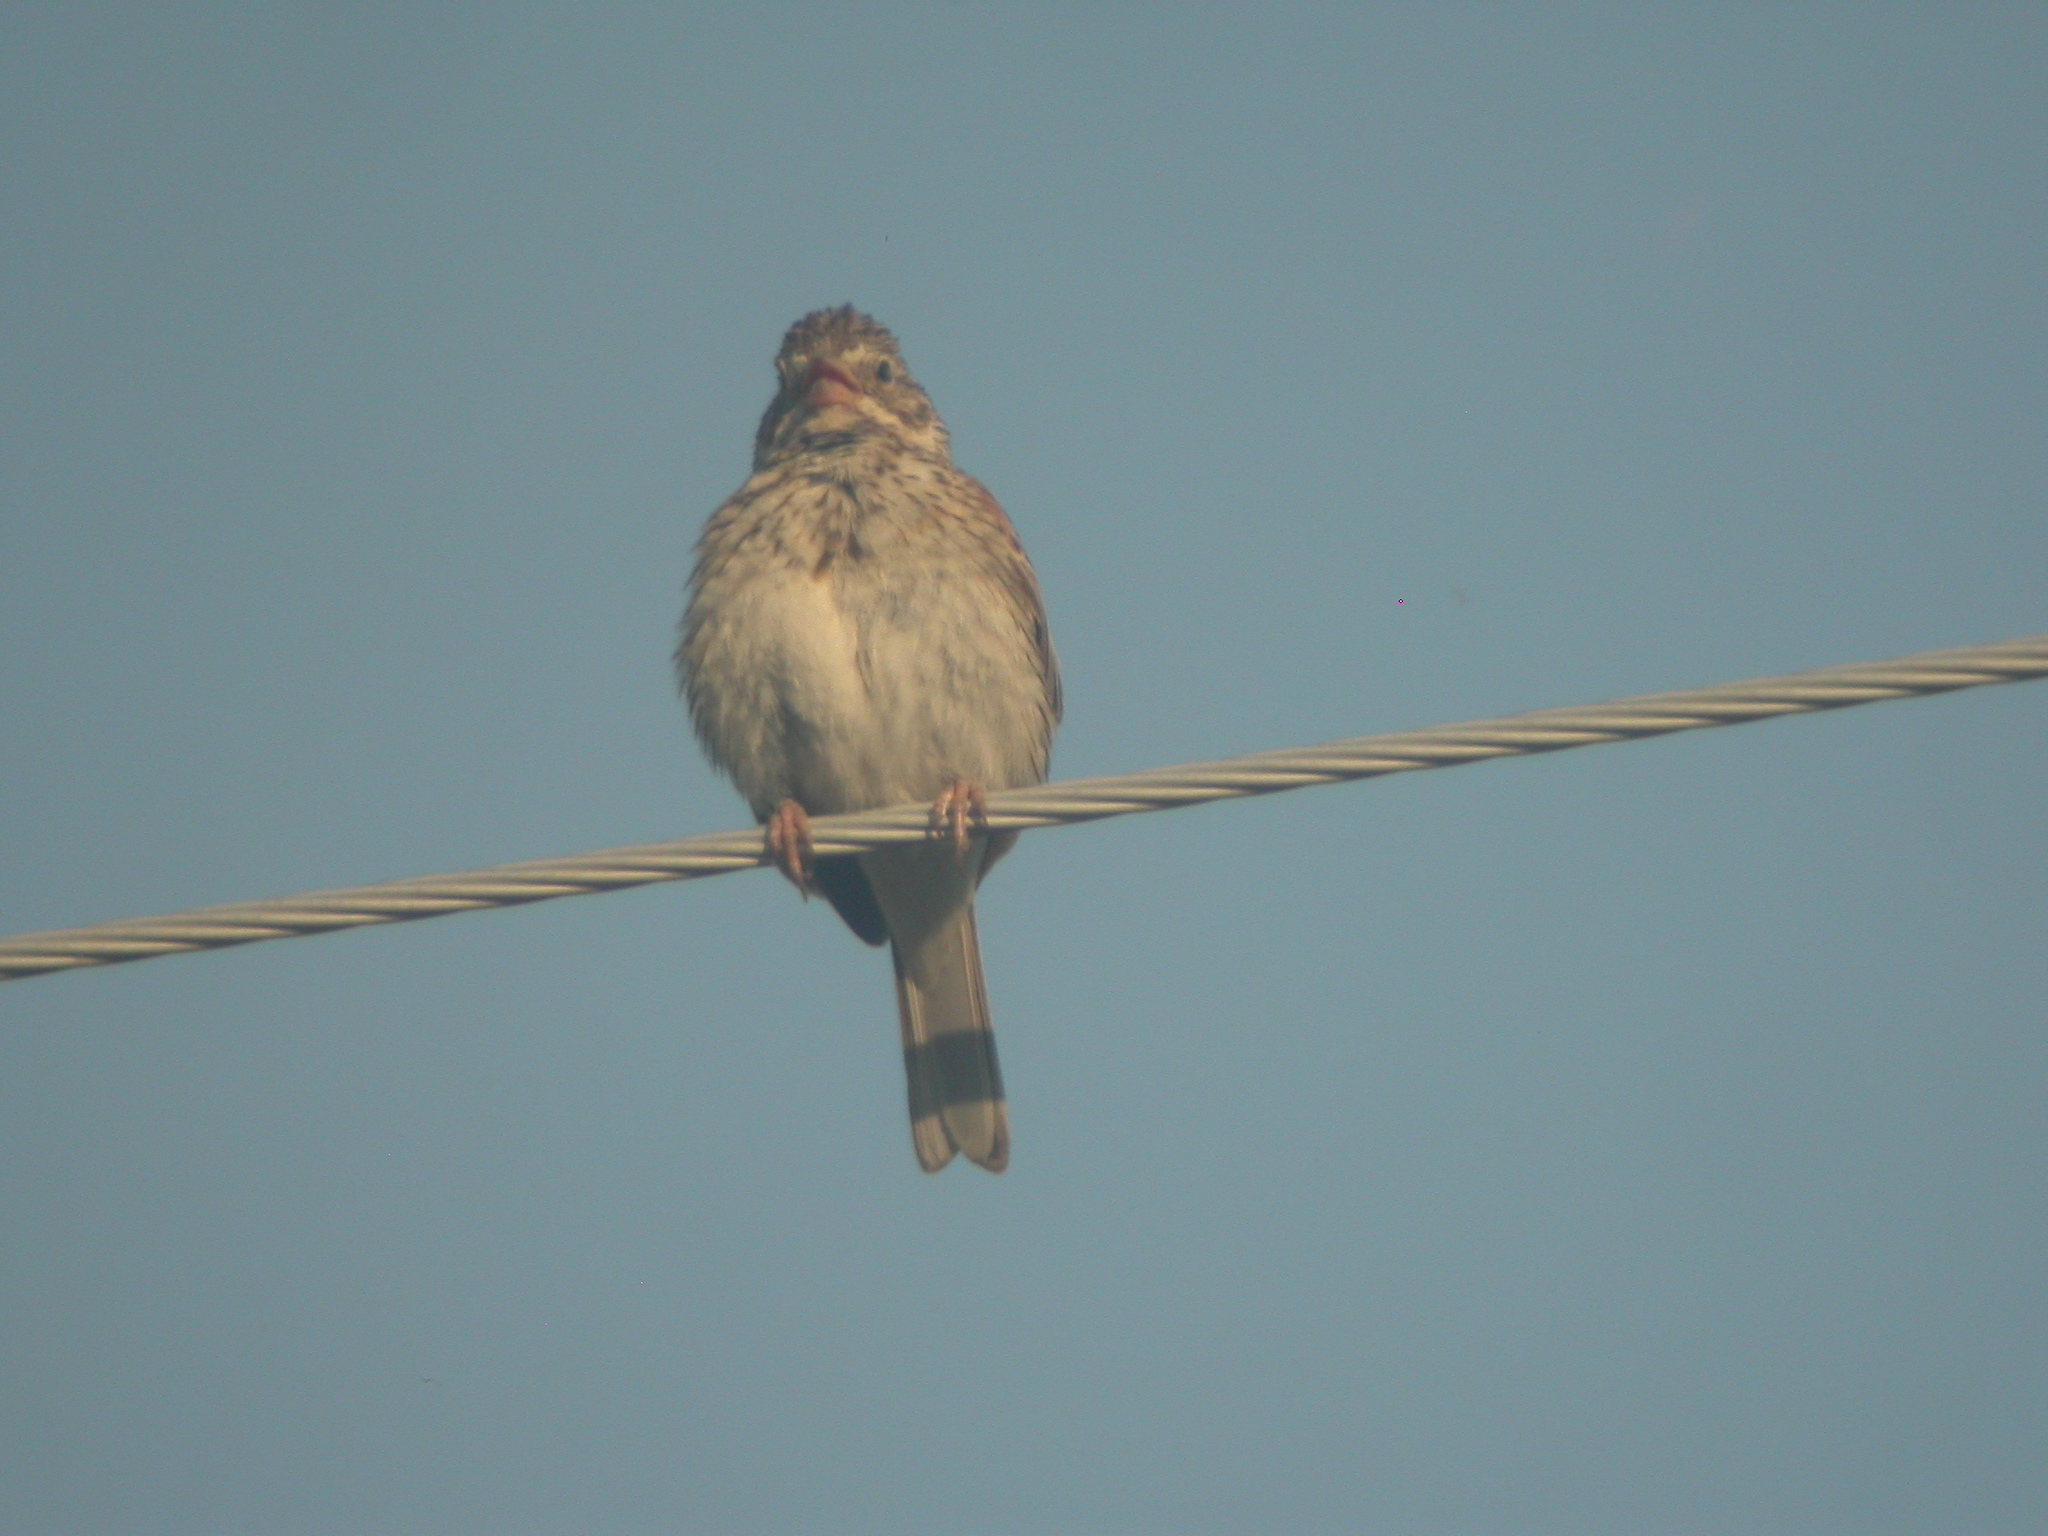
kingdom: Animalia
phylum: Chordata
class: Aves
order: Passeriformes
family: Passerellidae
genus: Pooecetes
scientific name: Pooecetes gramineus
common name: Vesper sparrow
